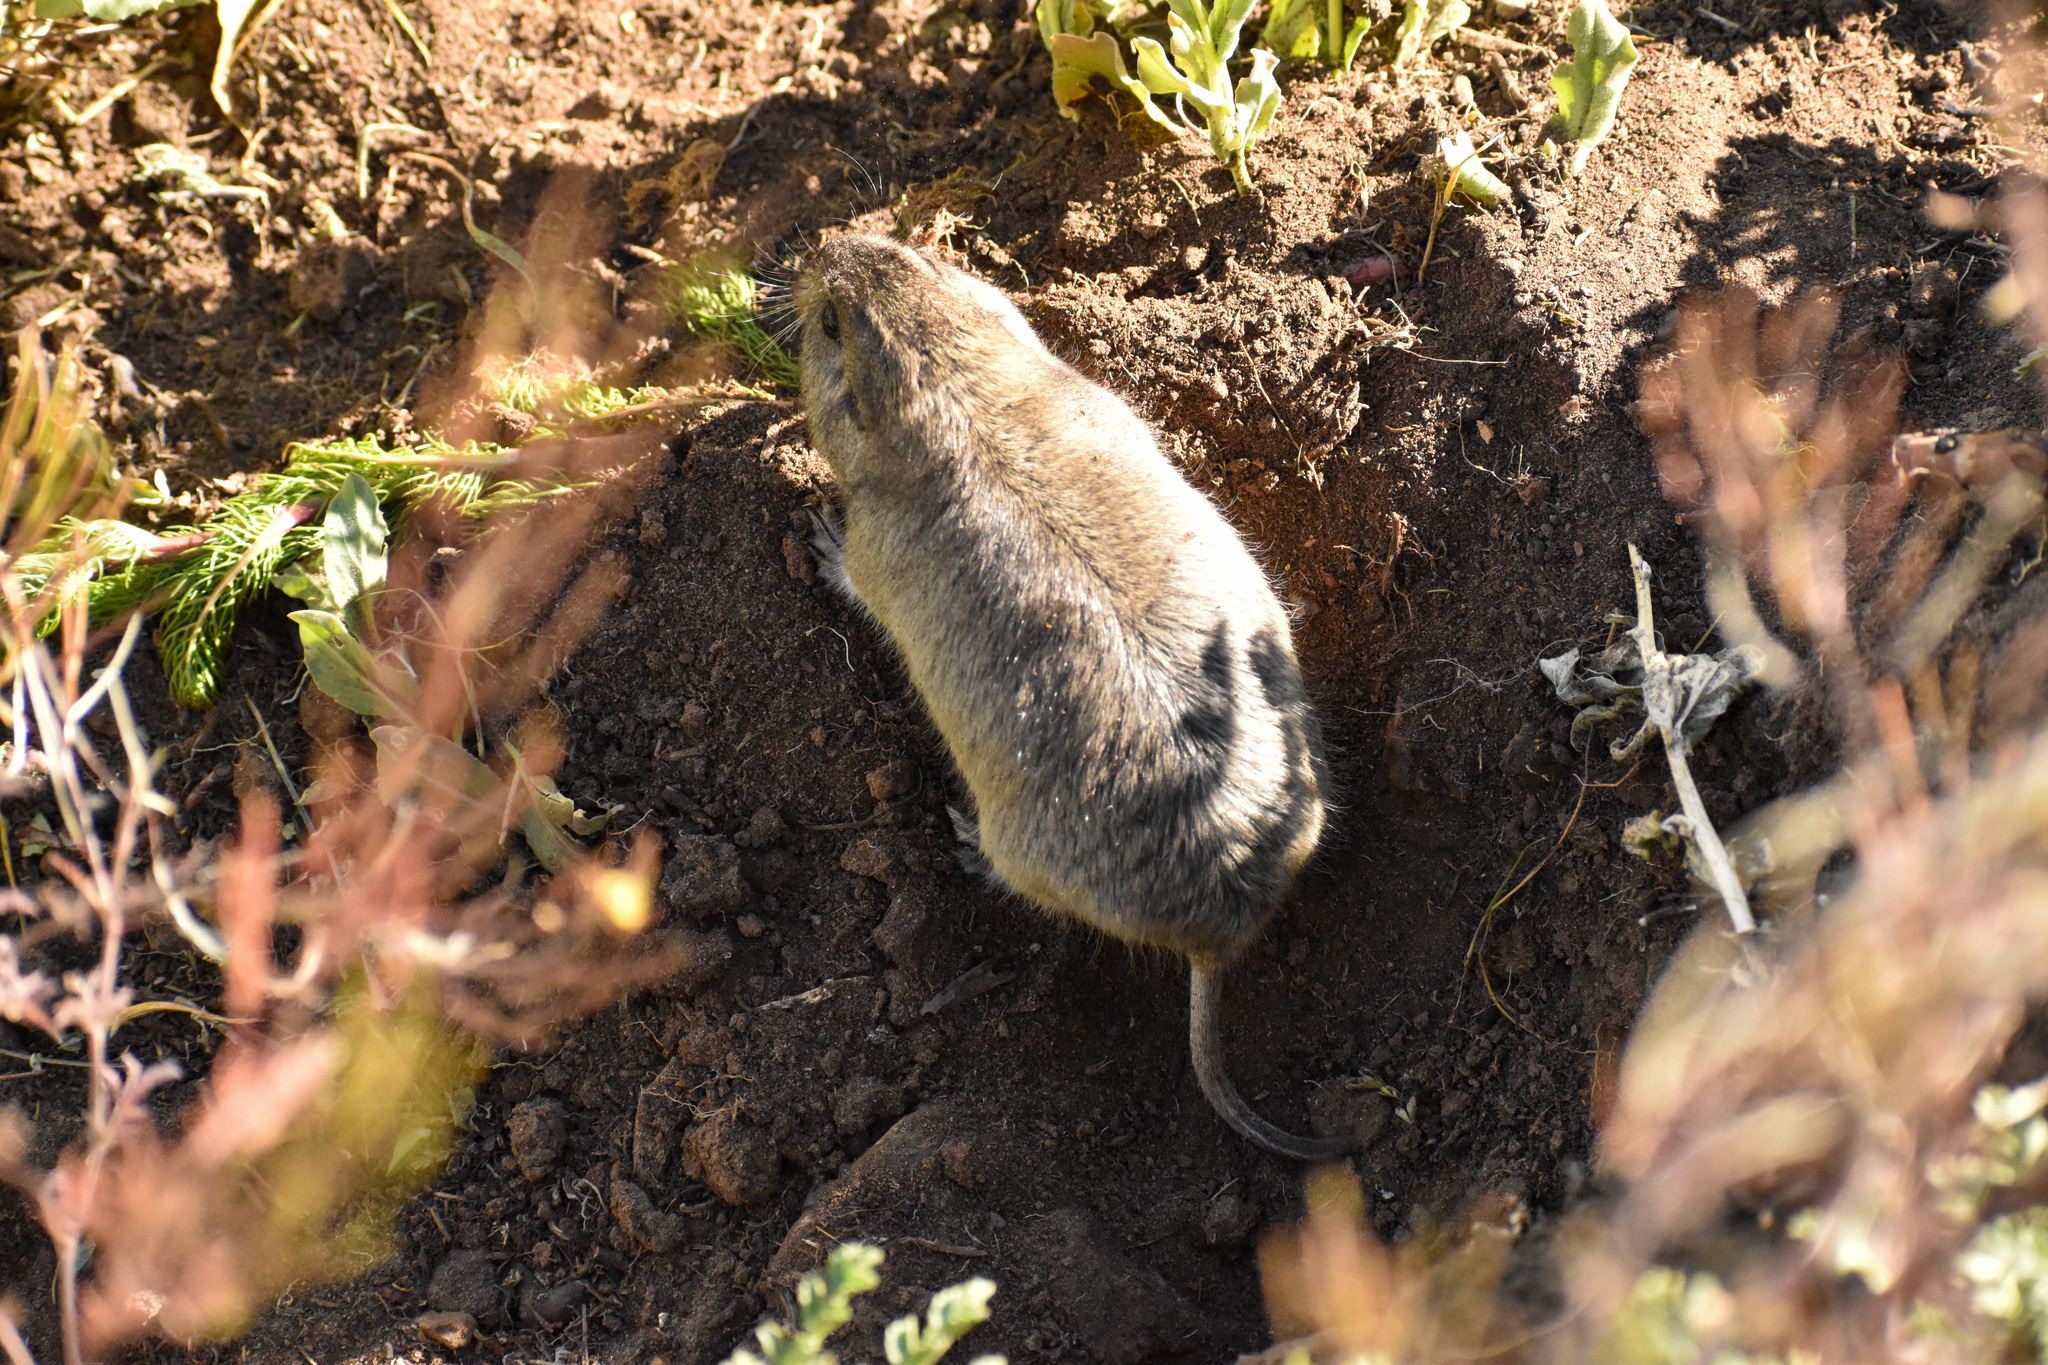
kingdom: Animalia
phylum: Chordata
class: Mammalia
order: Rodentia
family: Ctenomyidae
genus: Ctenomys
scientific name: Ctenomys sericeus
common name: Silky tuco-tuco
